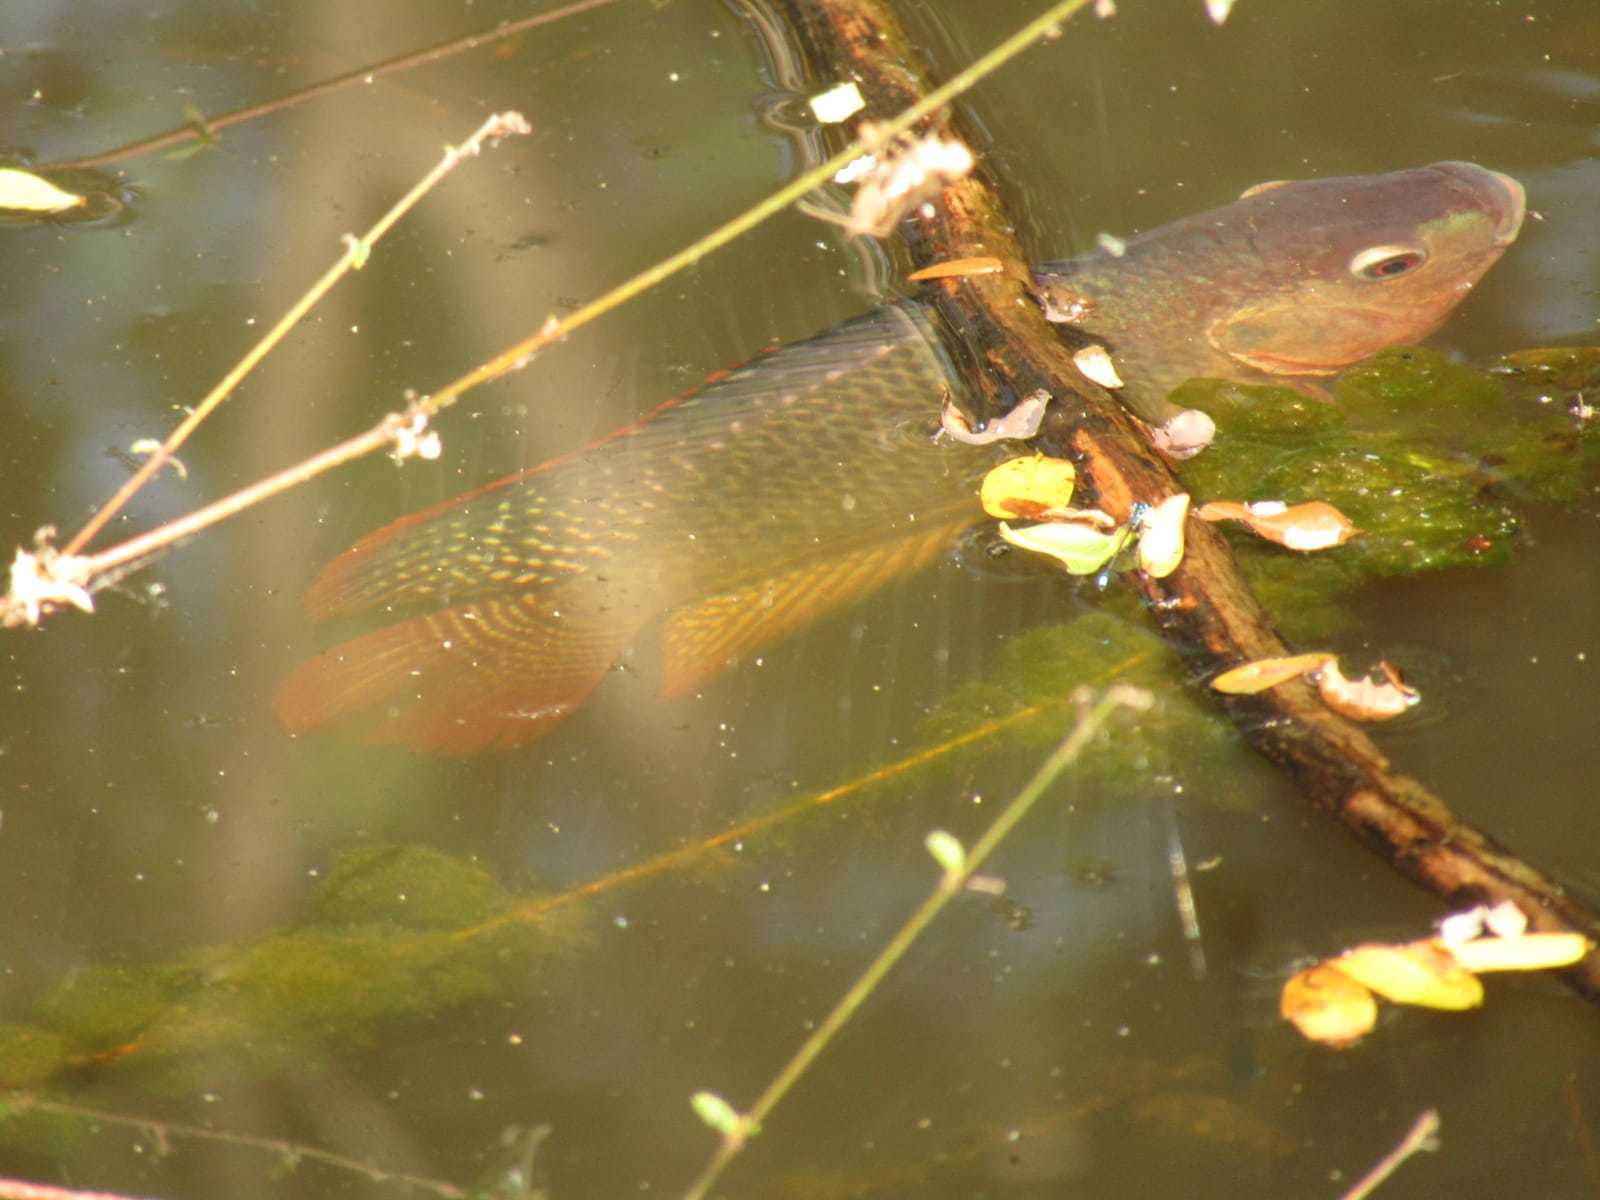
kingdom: Animalia
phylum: Chordata
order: Perciformes
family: Cichlidae
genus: Oreochromis
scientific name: Oreochromis niloticus
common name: Nile tilapia
